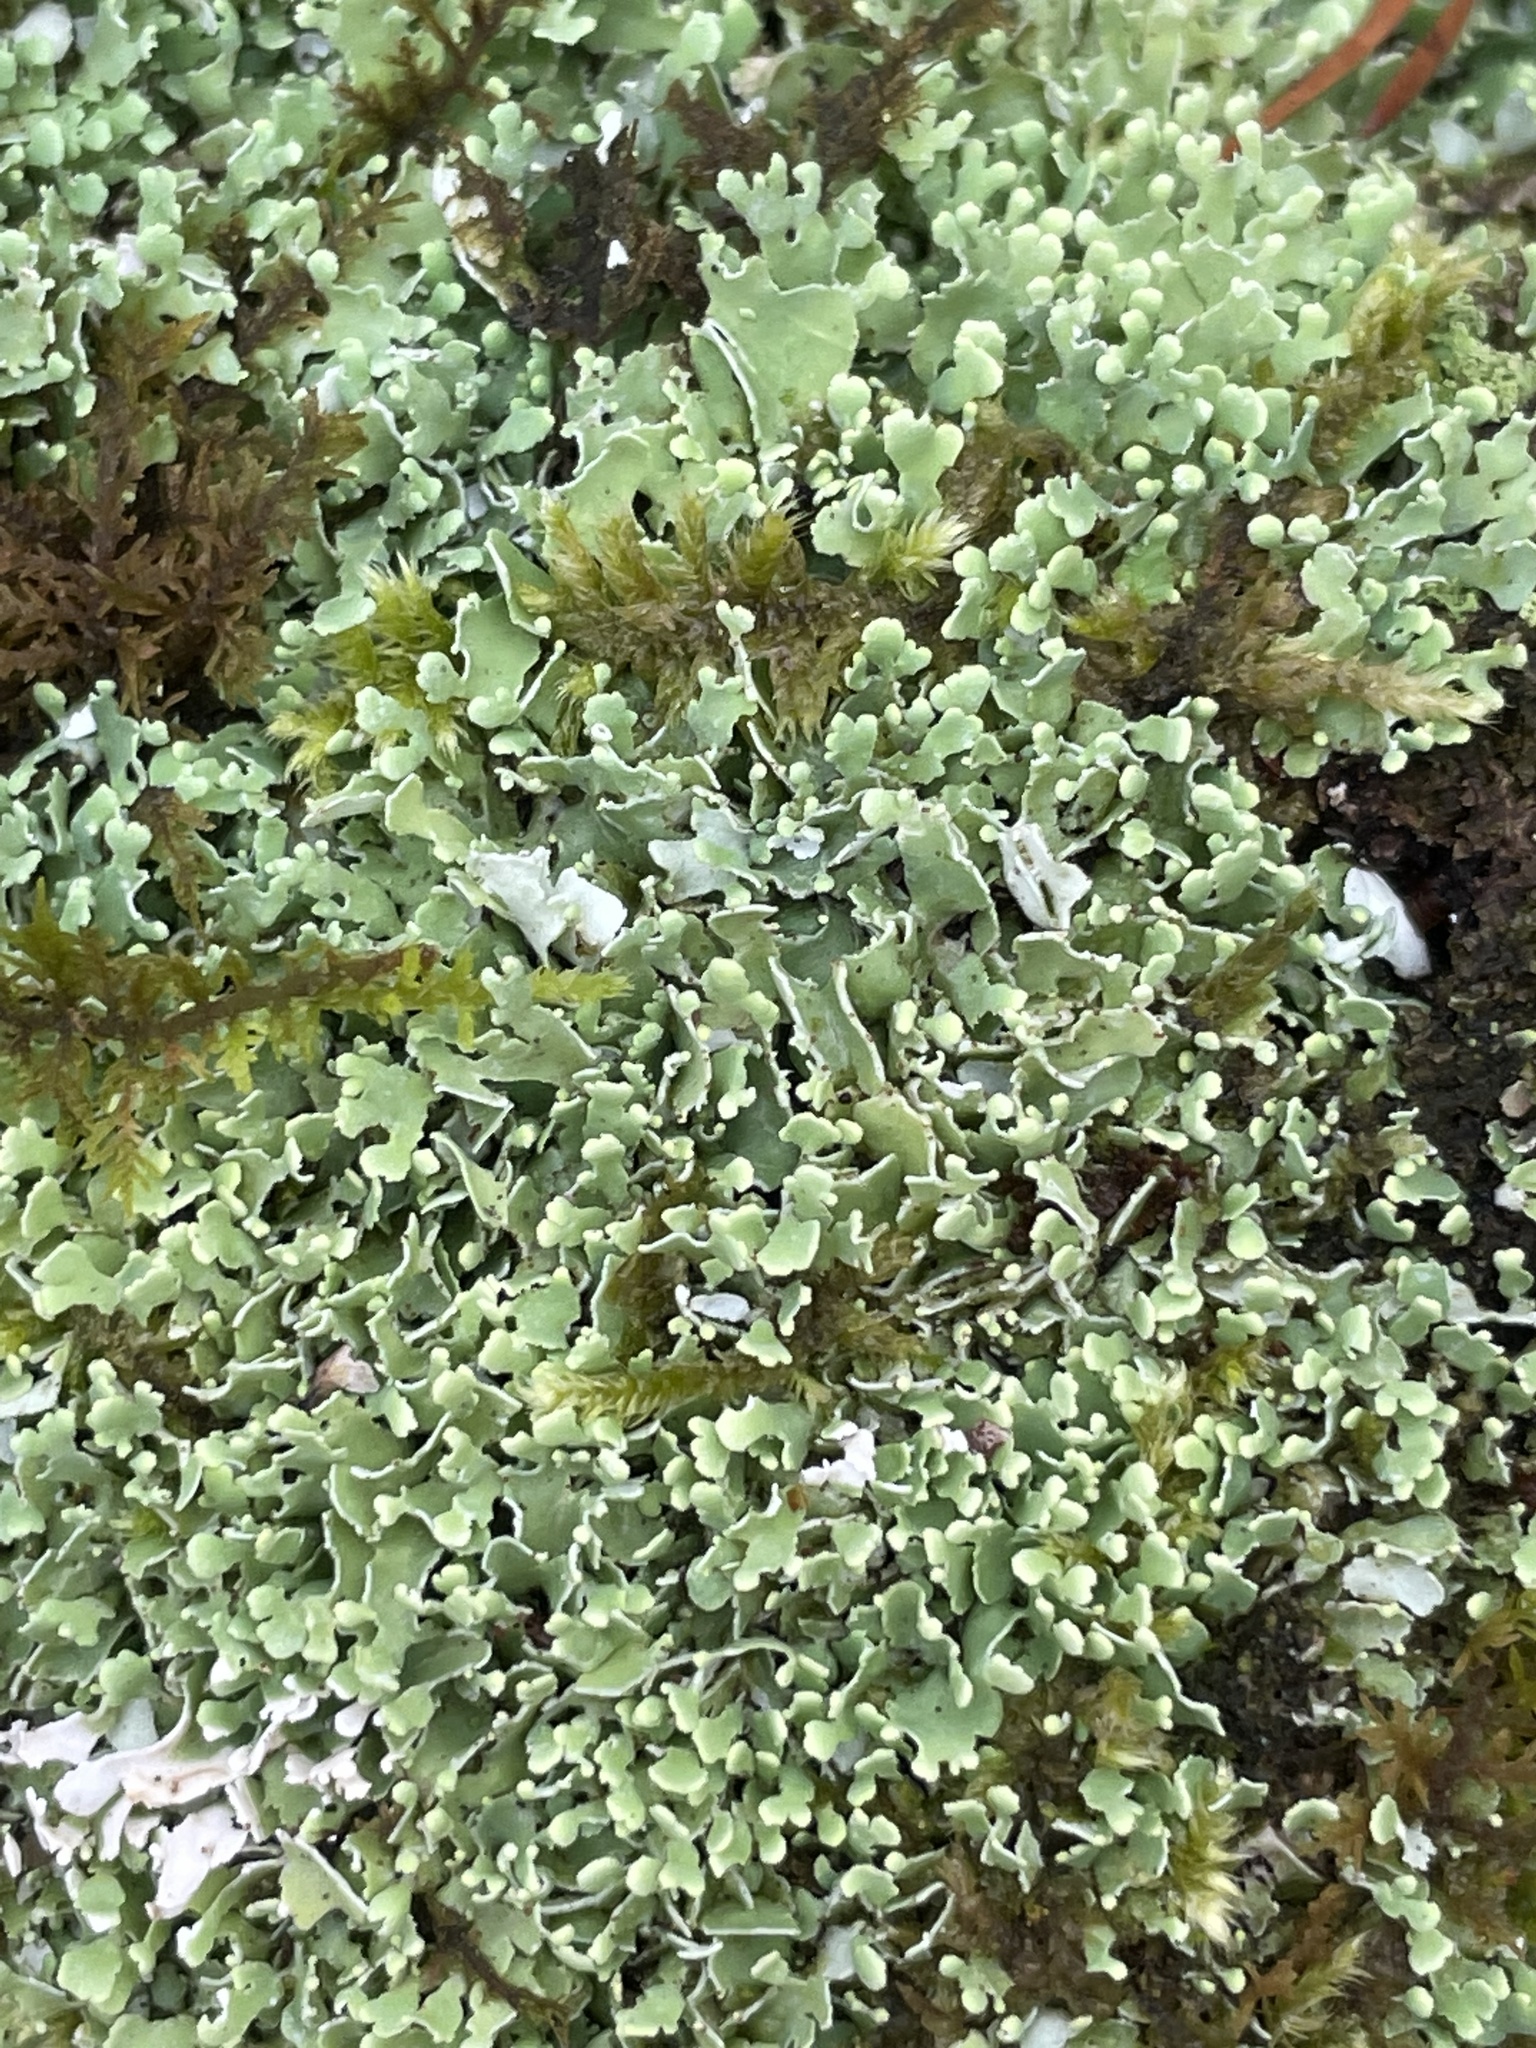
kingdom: Fungi
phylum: Ascomycota
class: Lecanoromycetes
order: Lecanorales
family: Cladoniaceae
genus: Cladonia
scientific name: Cladonia apodocarpa
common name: Stalkless cladonia
